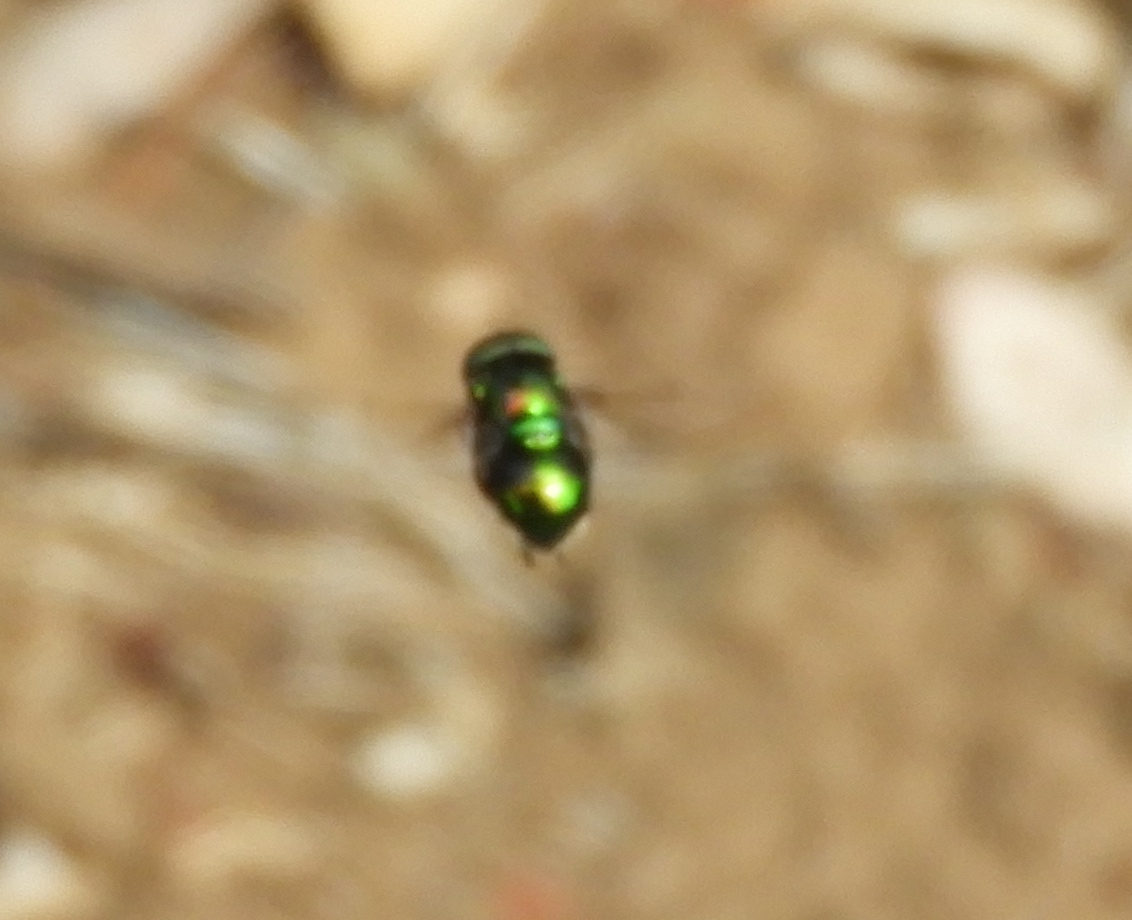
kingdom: Animalia
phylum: Arthropoda
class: Insecta
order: Diptera
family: Syrphidae
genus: Ornidia
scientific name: Ornidia
